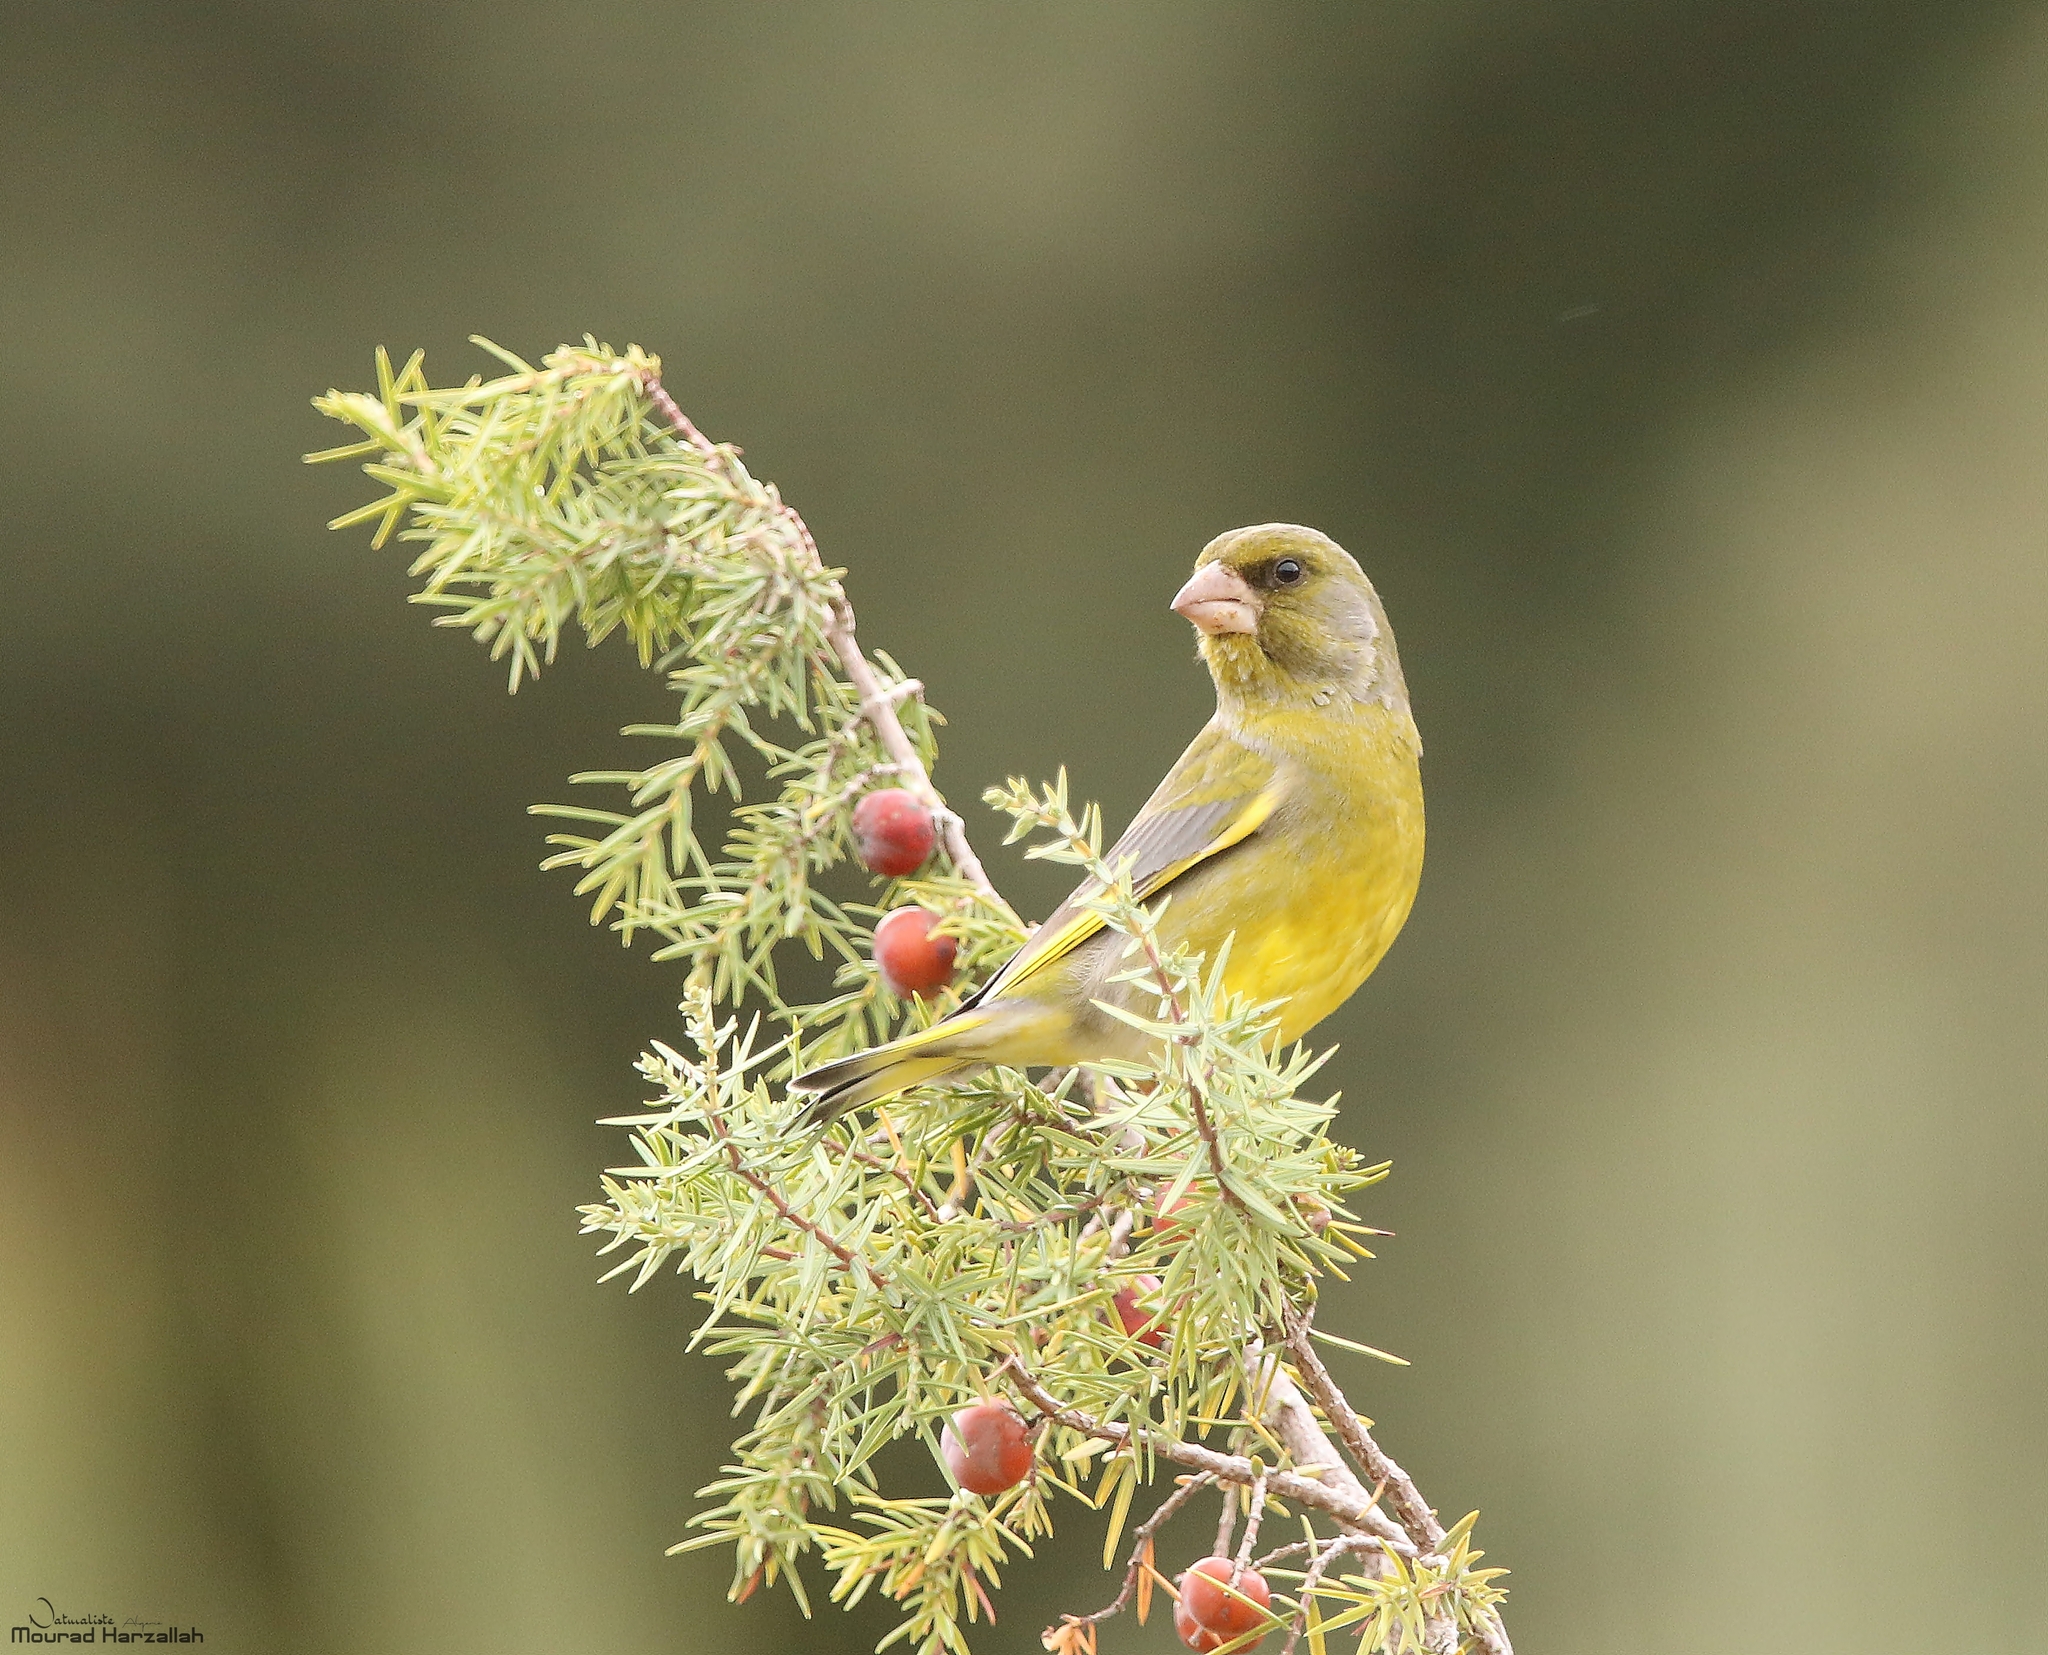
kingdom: Plantae
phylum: Tracheophyta
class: Liliopsida
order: Poales
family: Poaceae
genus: Chloris
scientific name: Chloris chloris
